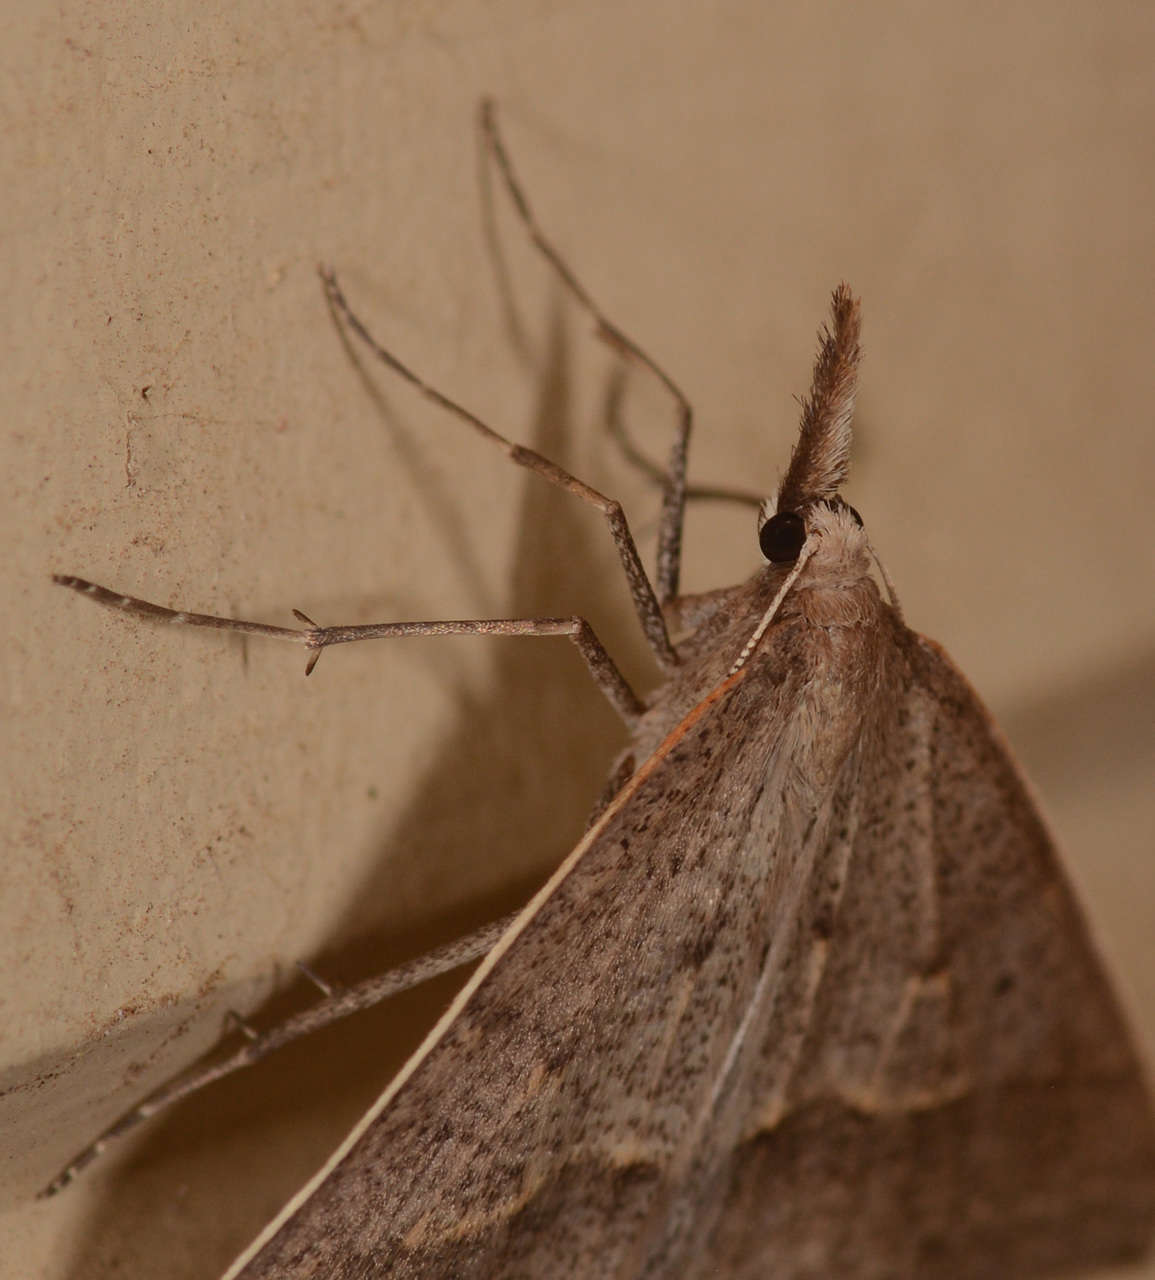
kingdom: Animalia
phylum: Arthropoda
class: Insecta
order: Lepidoptera
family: Geometridae
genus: Epidesmia
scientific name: Epidesmia hypenaria
